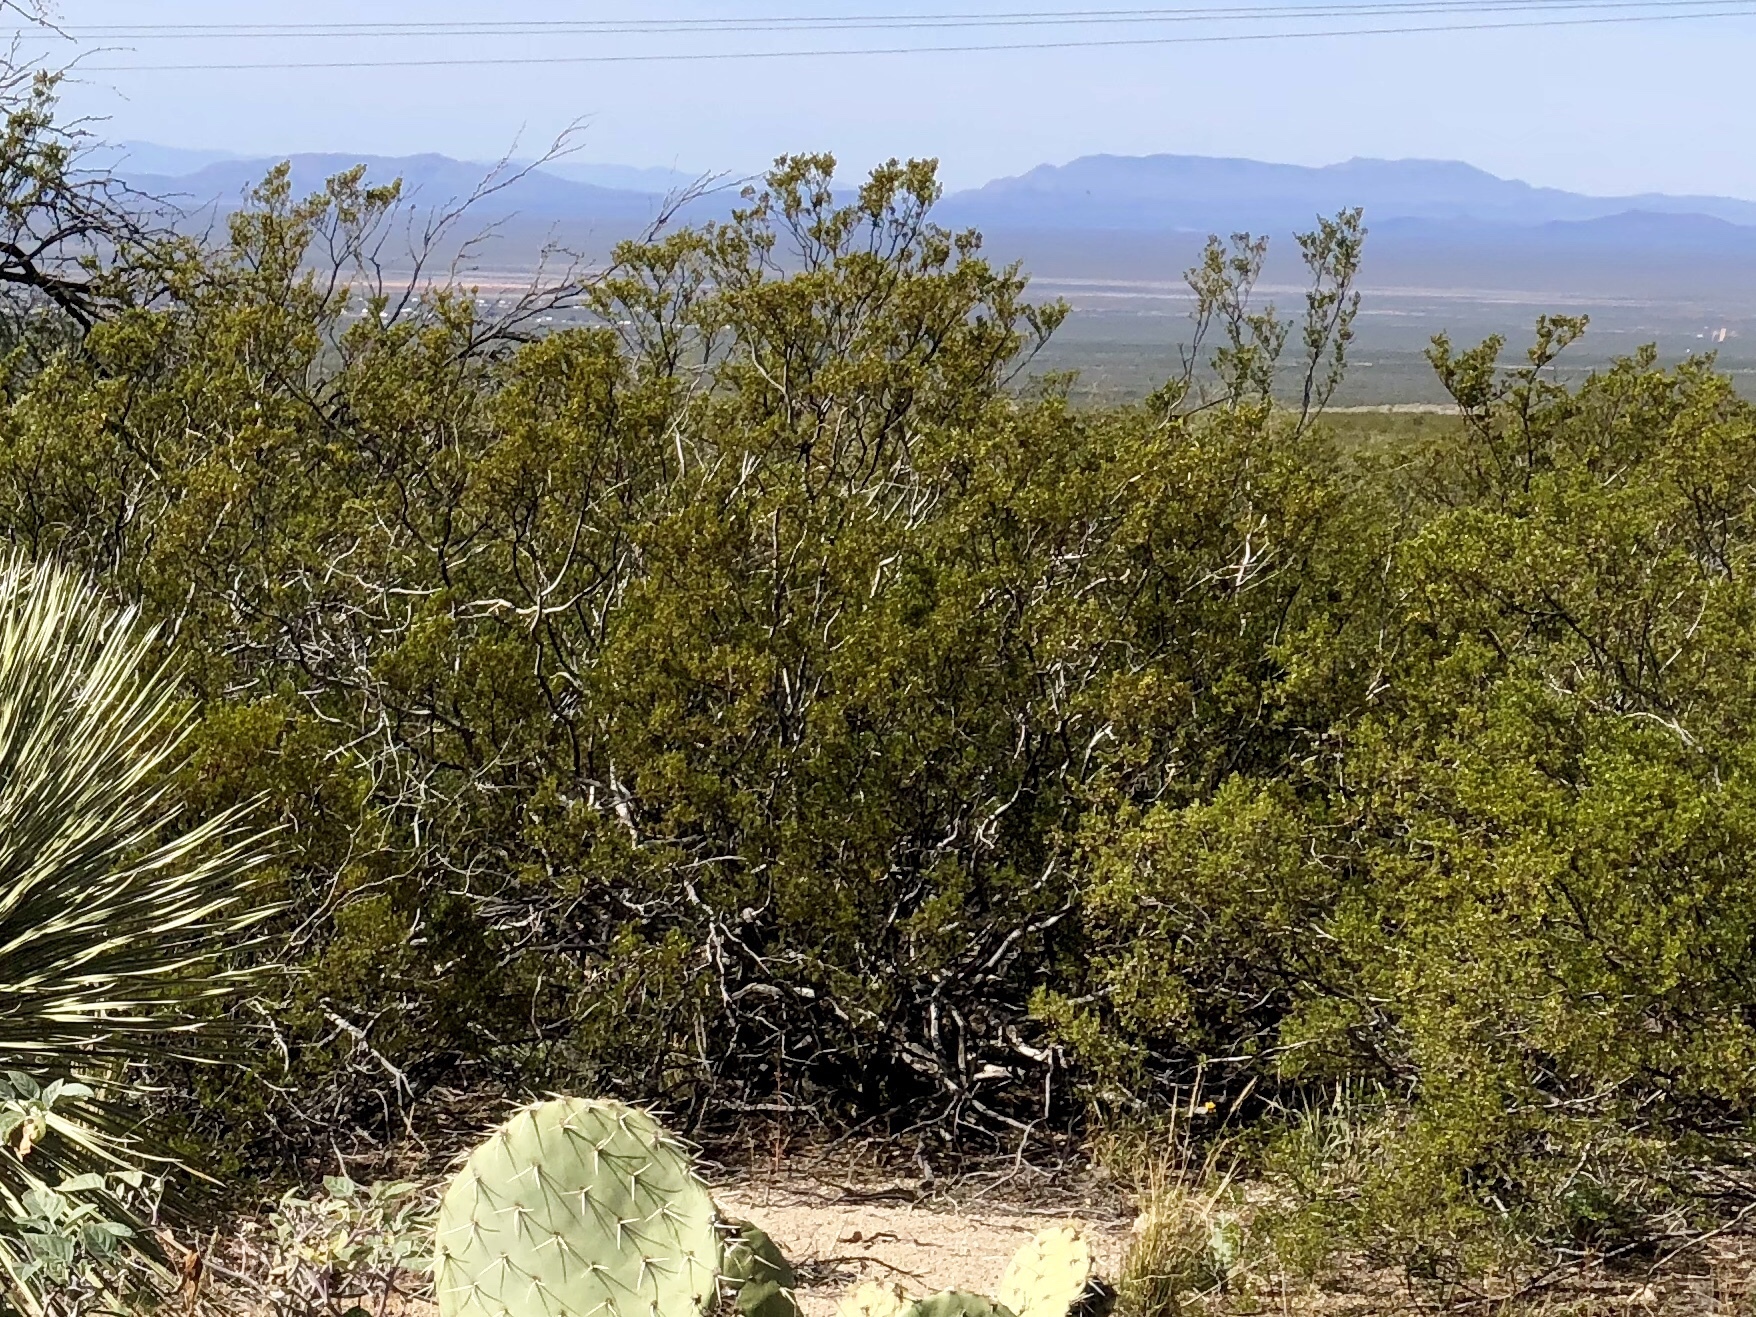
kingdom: Plantae
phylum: Tracheophyta
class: Magnoliopsida
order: Zygophyllales
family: Zygophyllaceae
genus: Larrea
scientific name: Larrea tridentata
